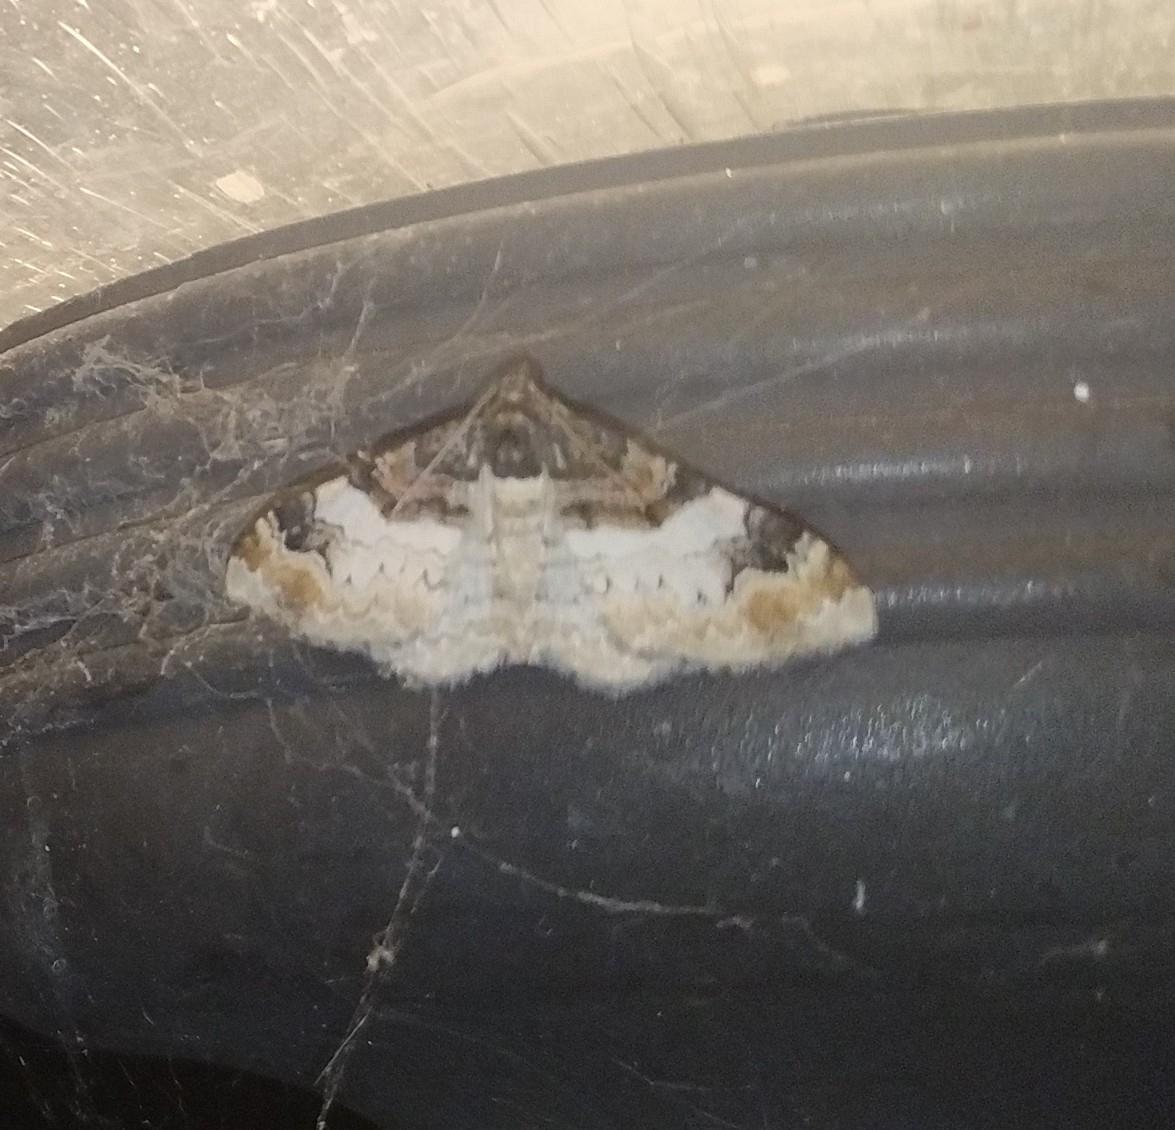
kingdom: Animalia
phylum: Arthropoda
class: Insecta
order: Lepidoptera
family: Geometridae
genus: Catarhoe
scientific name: Catarhoe cuculata
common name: Royal mantle
